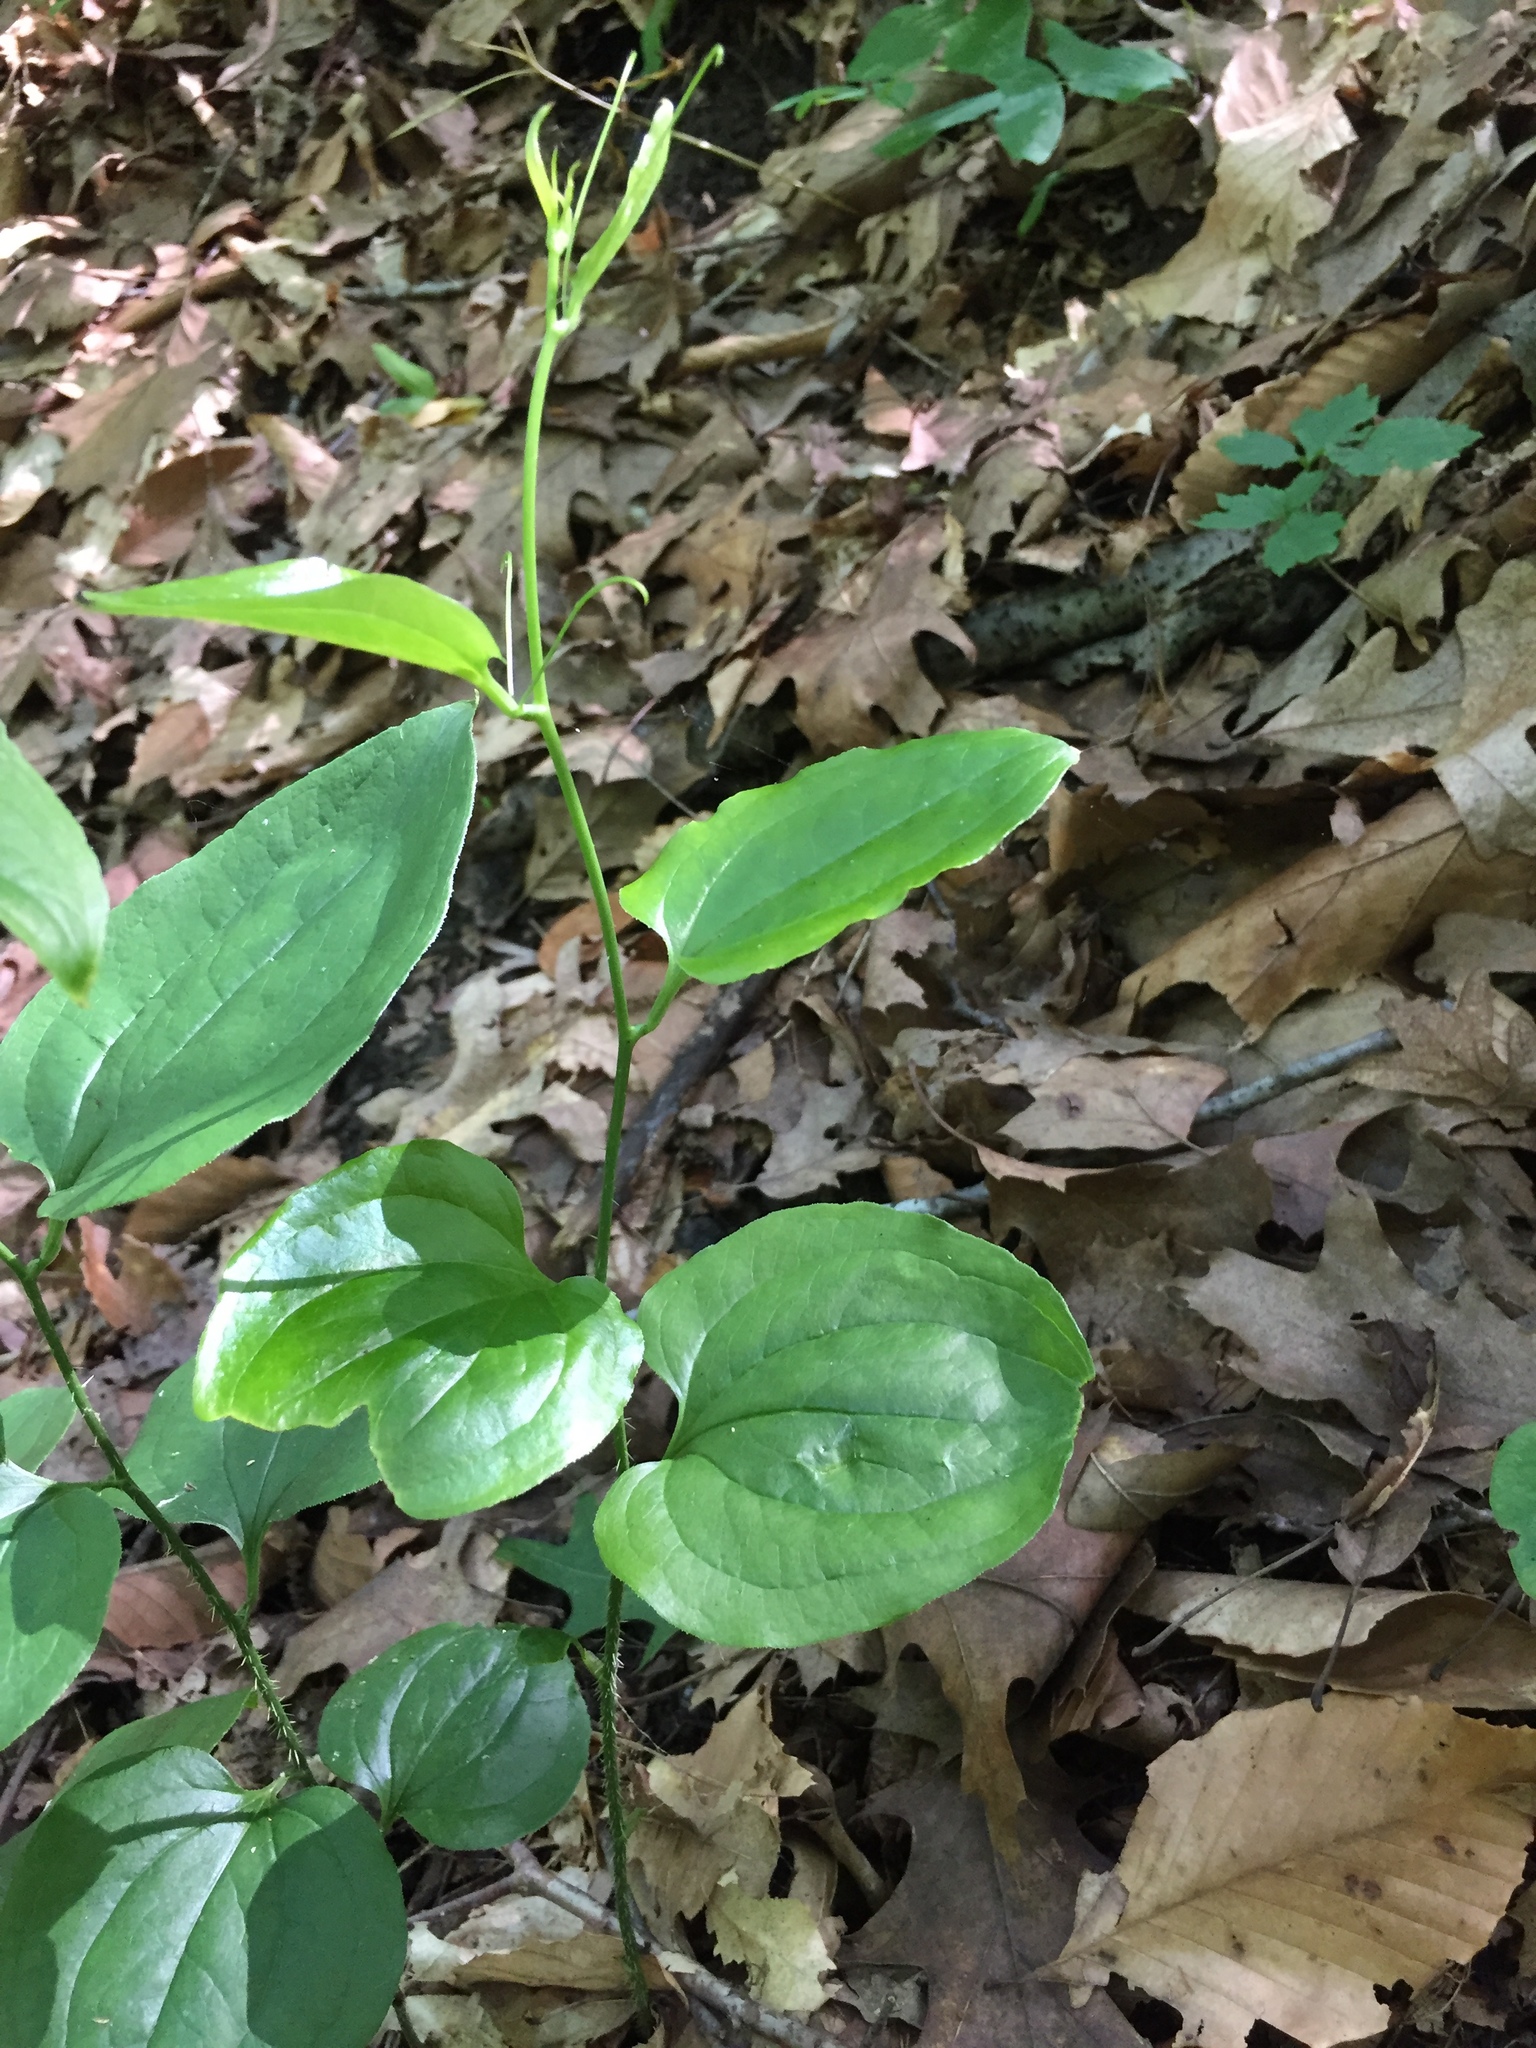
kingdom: Plantae
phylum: Tracheophyta
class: Liliopsida
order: Liliales
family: Smilacaceae
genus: Smilax
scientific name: Smilax tamnoides
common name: Hellfetter
